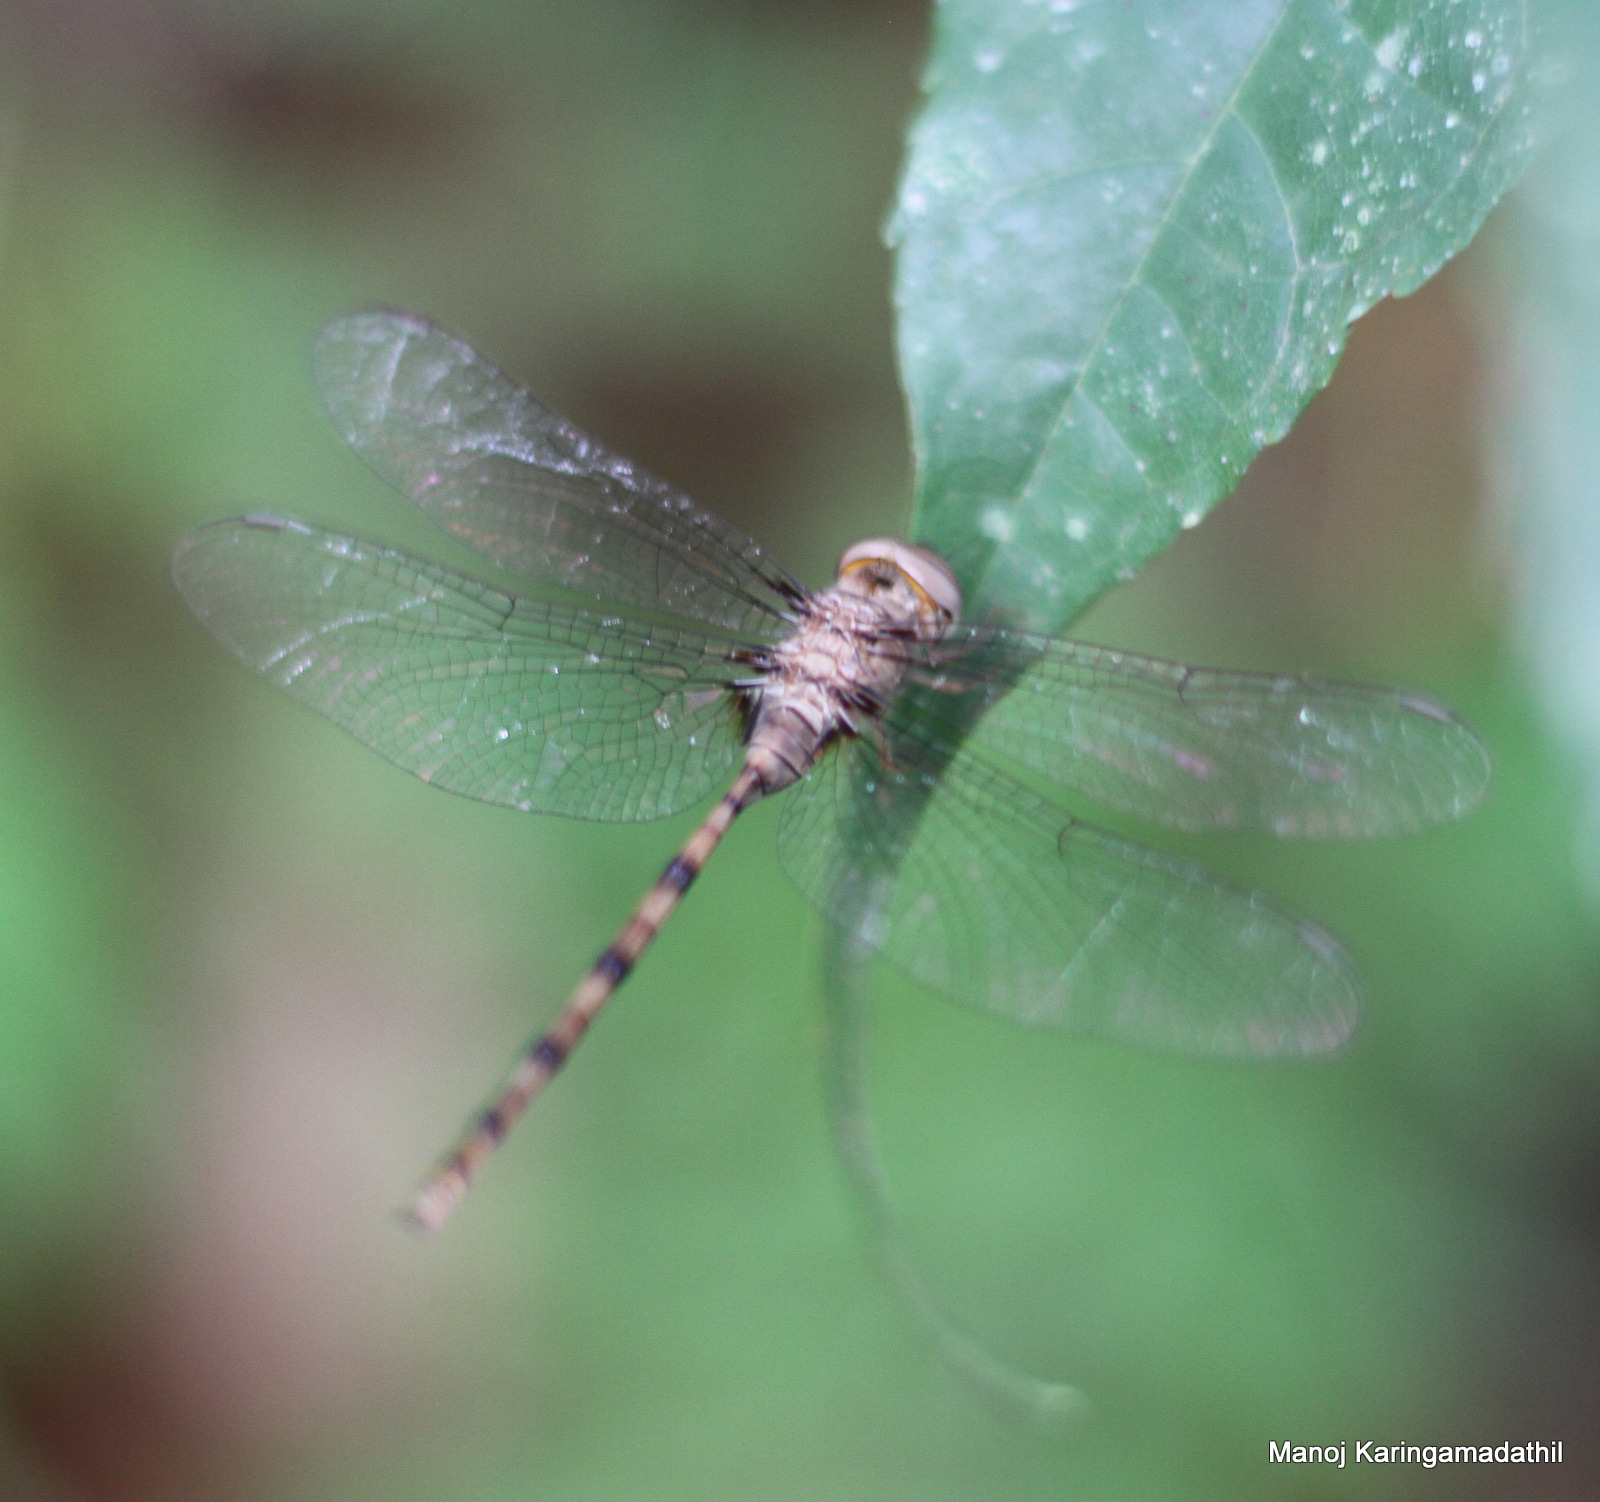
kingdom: Animalia
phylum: Arthropoda
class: Insecta
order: Odonata
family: Libellulidae
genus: Zyxomma
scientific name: Zyxomma petiolatum
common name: Dingy dusk-darter
